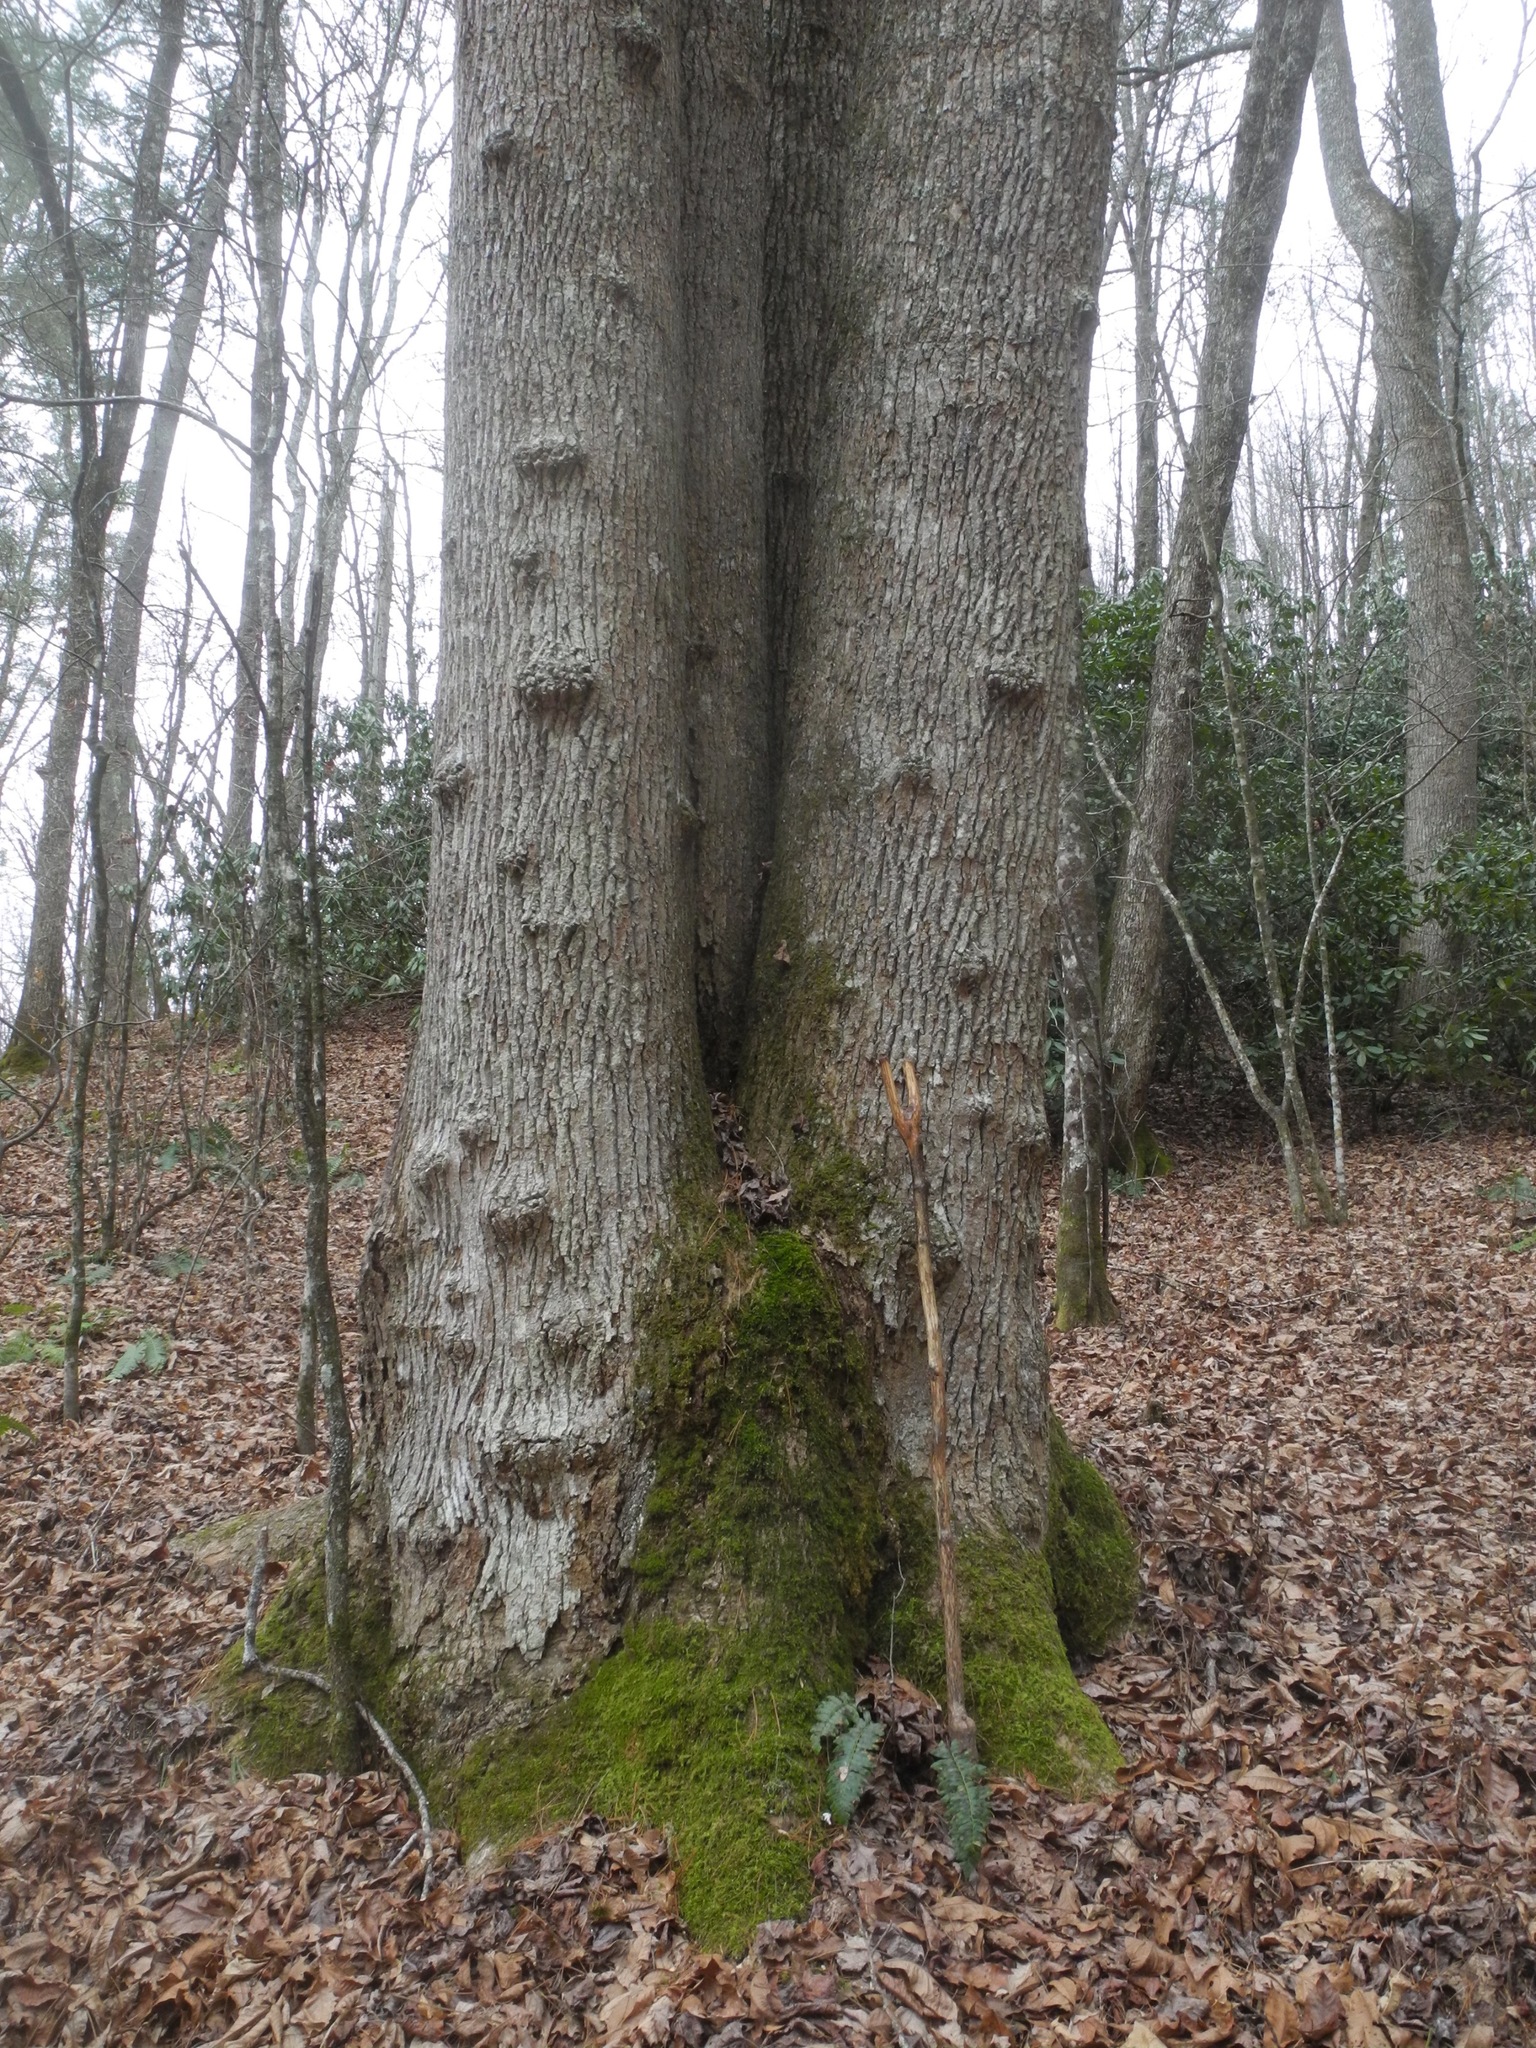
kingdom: Plantae
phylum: Tracheophyta
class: Magnoliopsida
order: Magnoliales
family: Magnoliaceae
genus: Liriodendron
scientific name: Liriodendron tulipifera
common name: Tulip tree
